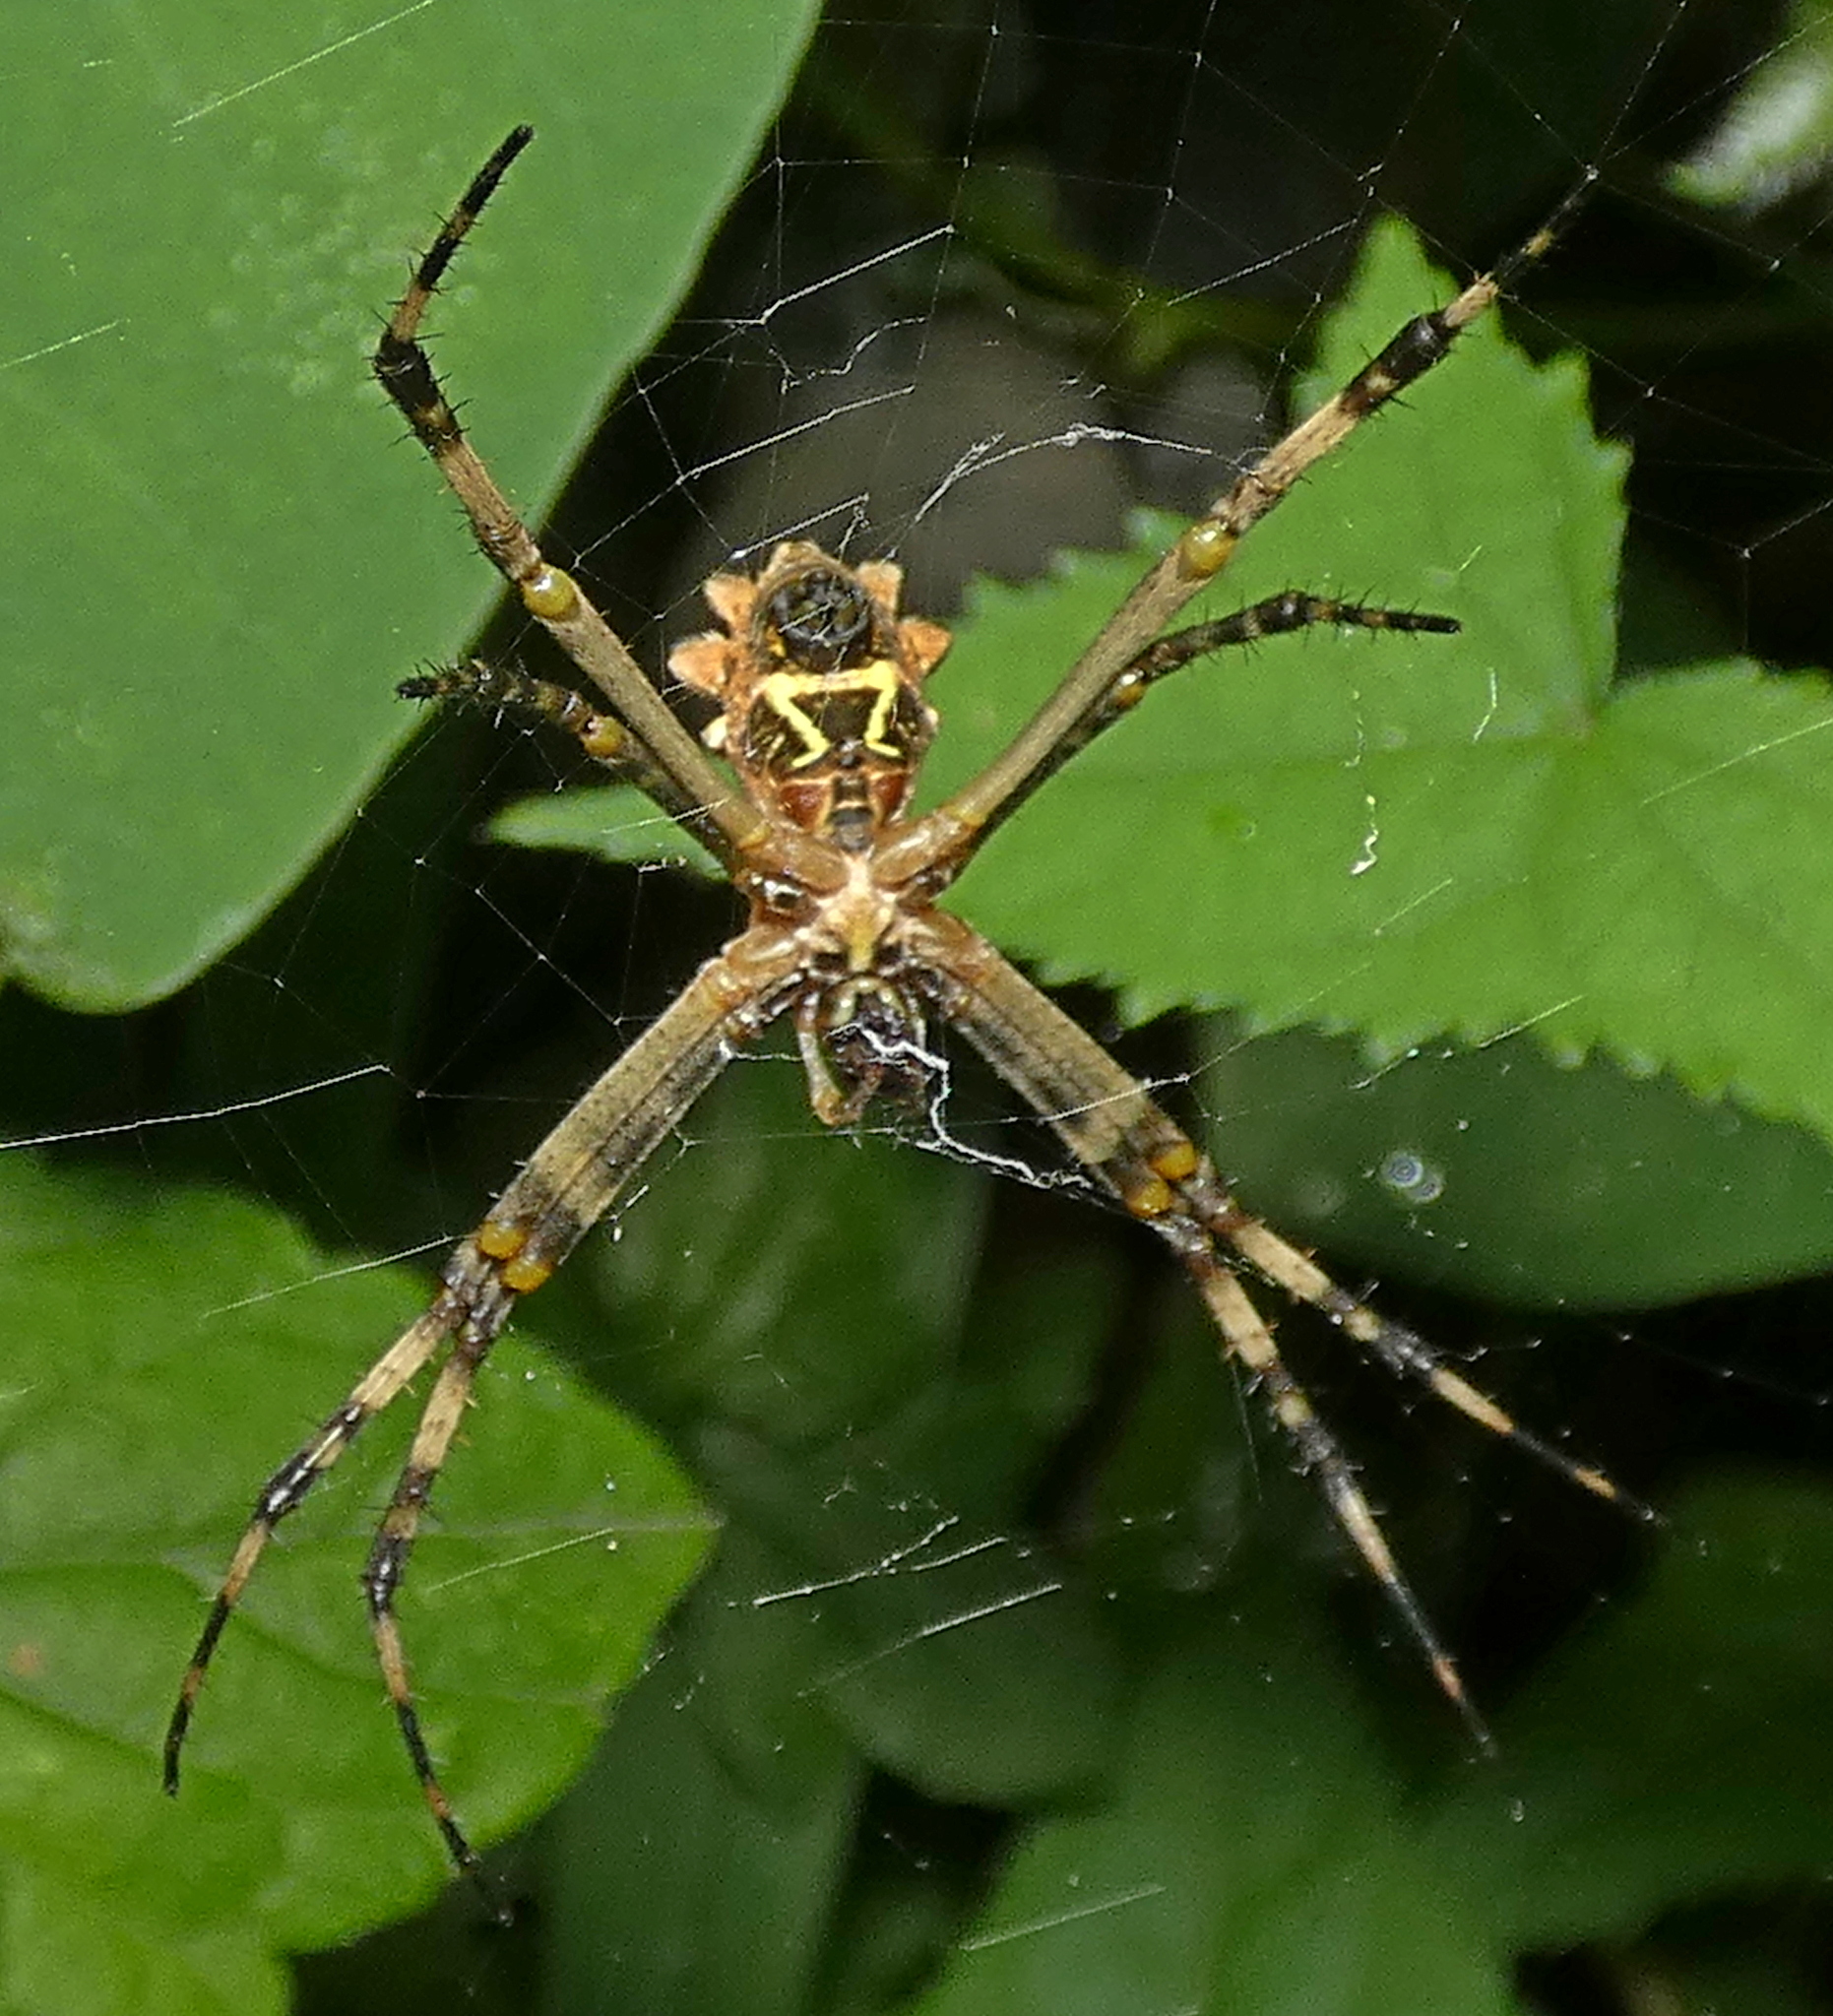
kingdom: Animalia
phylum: Arthropoda
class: Arachnida
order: Araneae
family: Araneidae
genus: Argiope
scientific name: Argiope argentata
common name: Orb weavers
